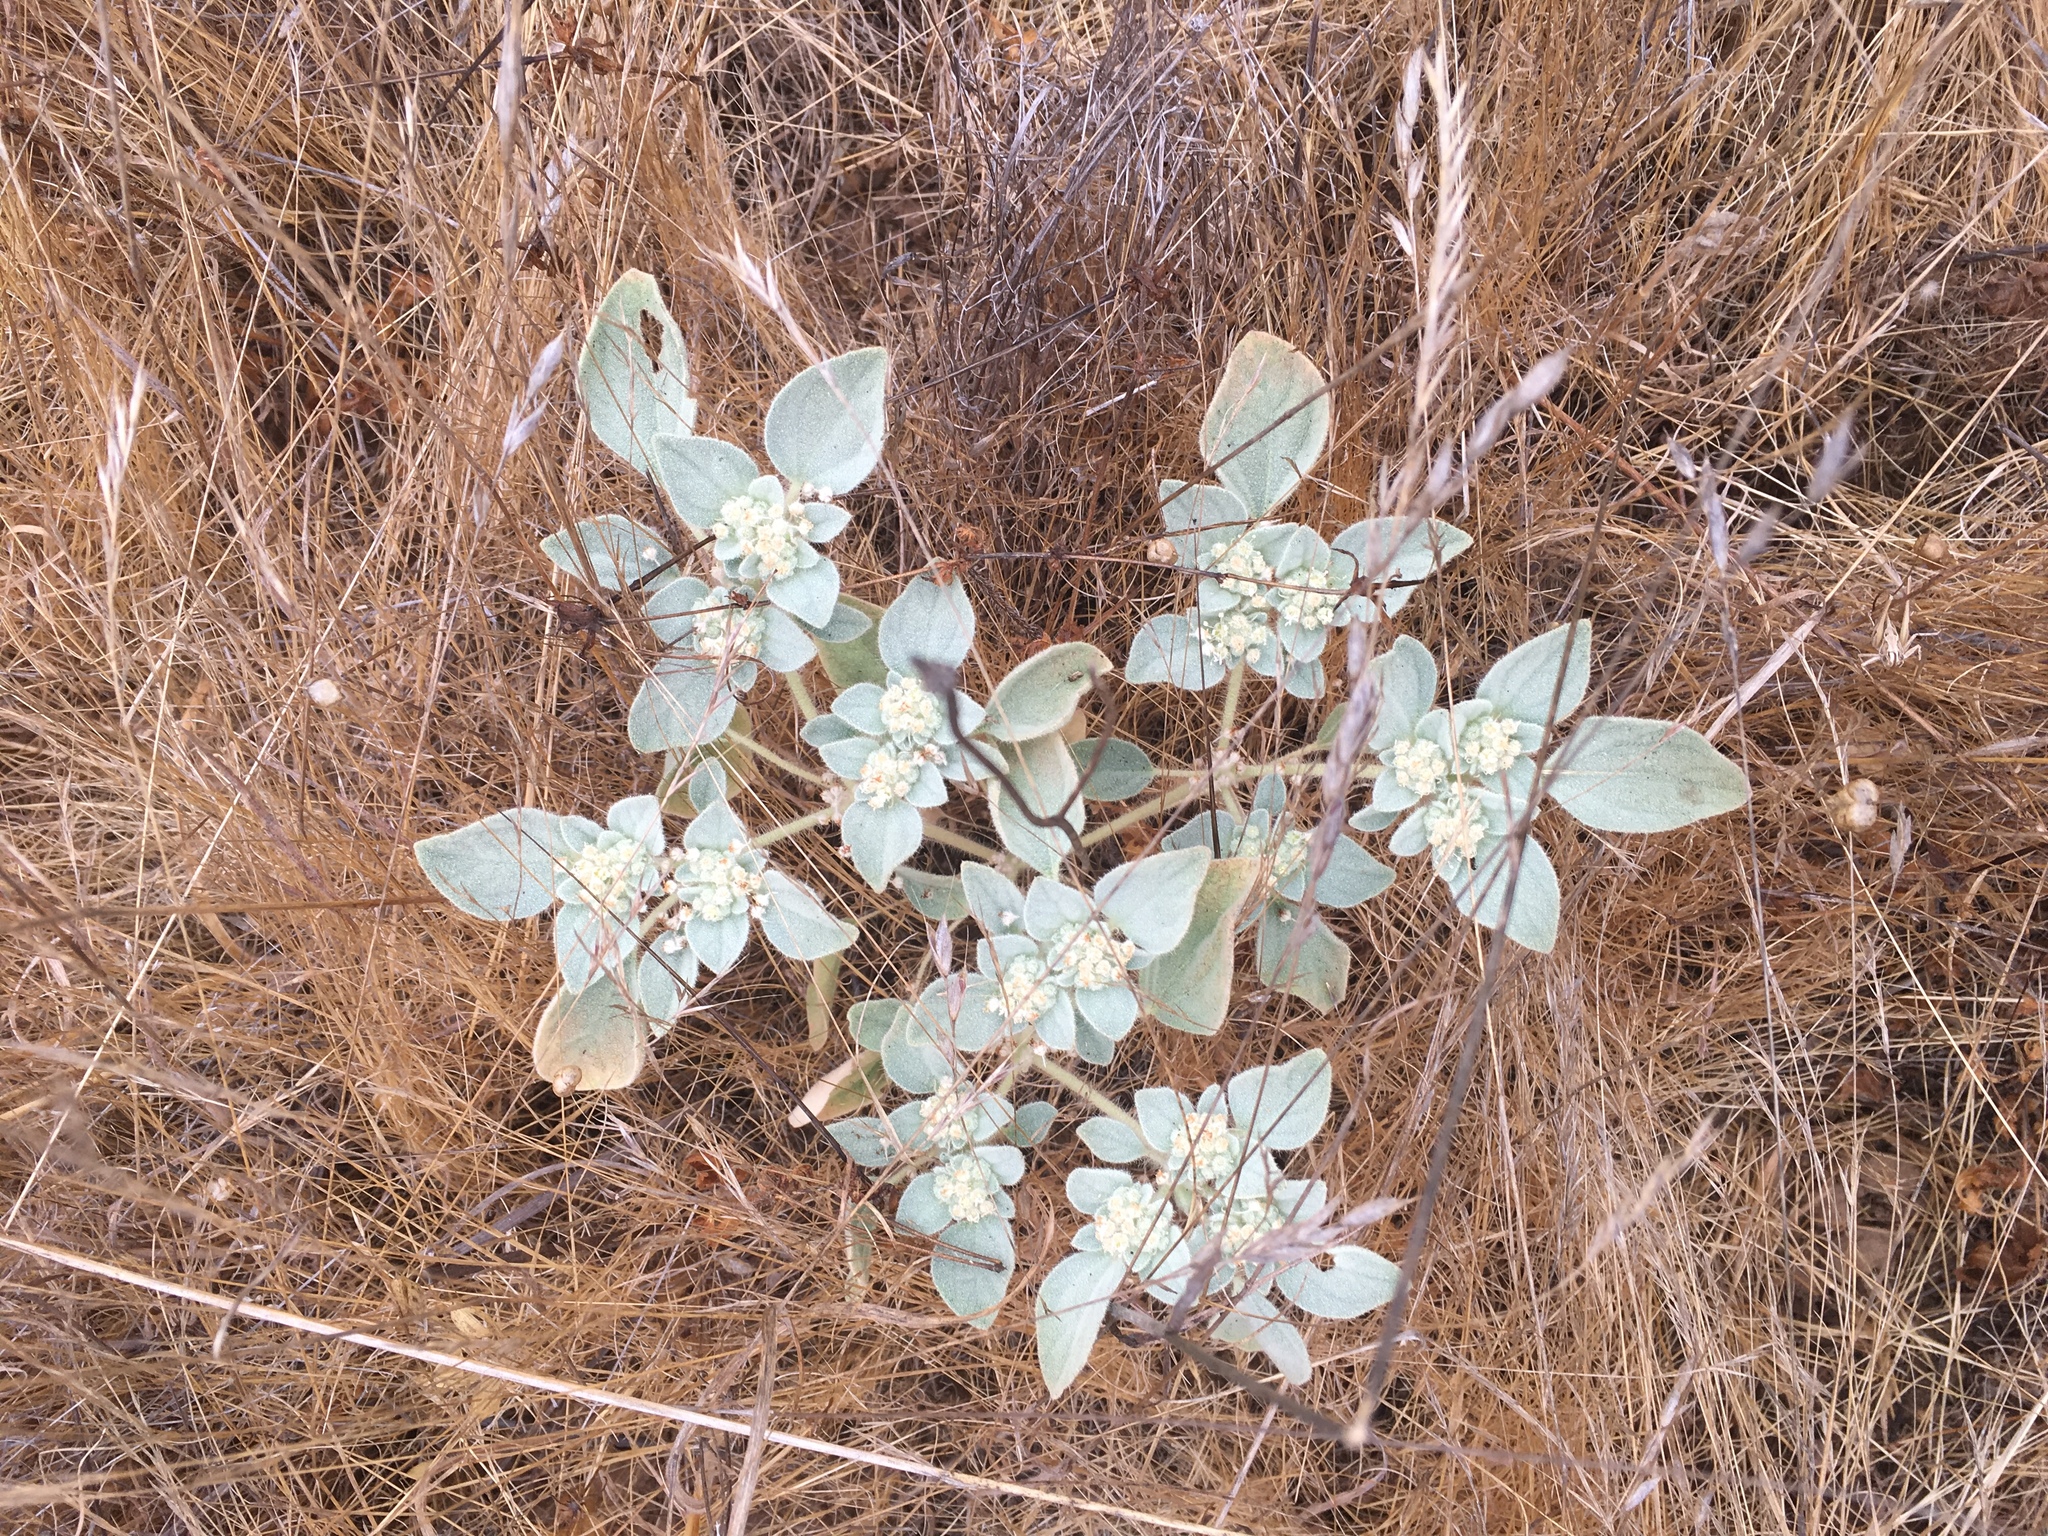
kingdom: Plantae
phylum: Tracheophyta
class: Magnoliopsida
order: Malpighiales
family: Euphorbiaceae
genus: Croton
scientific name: Croton setiger
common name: Dove weed
